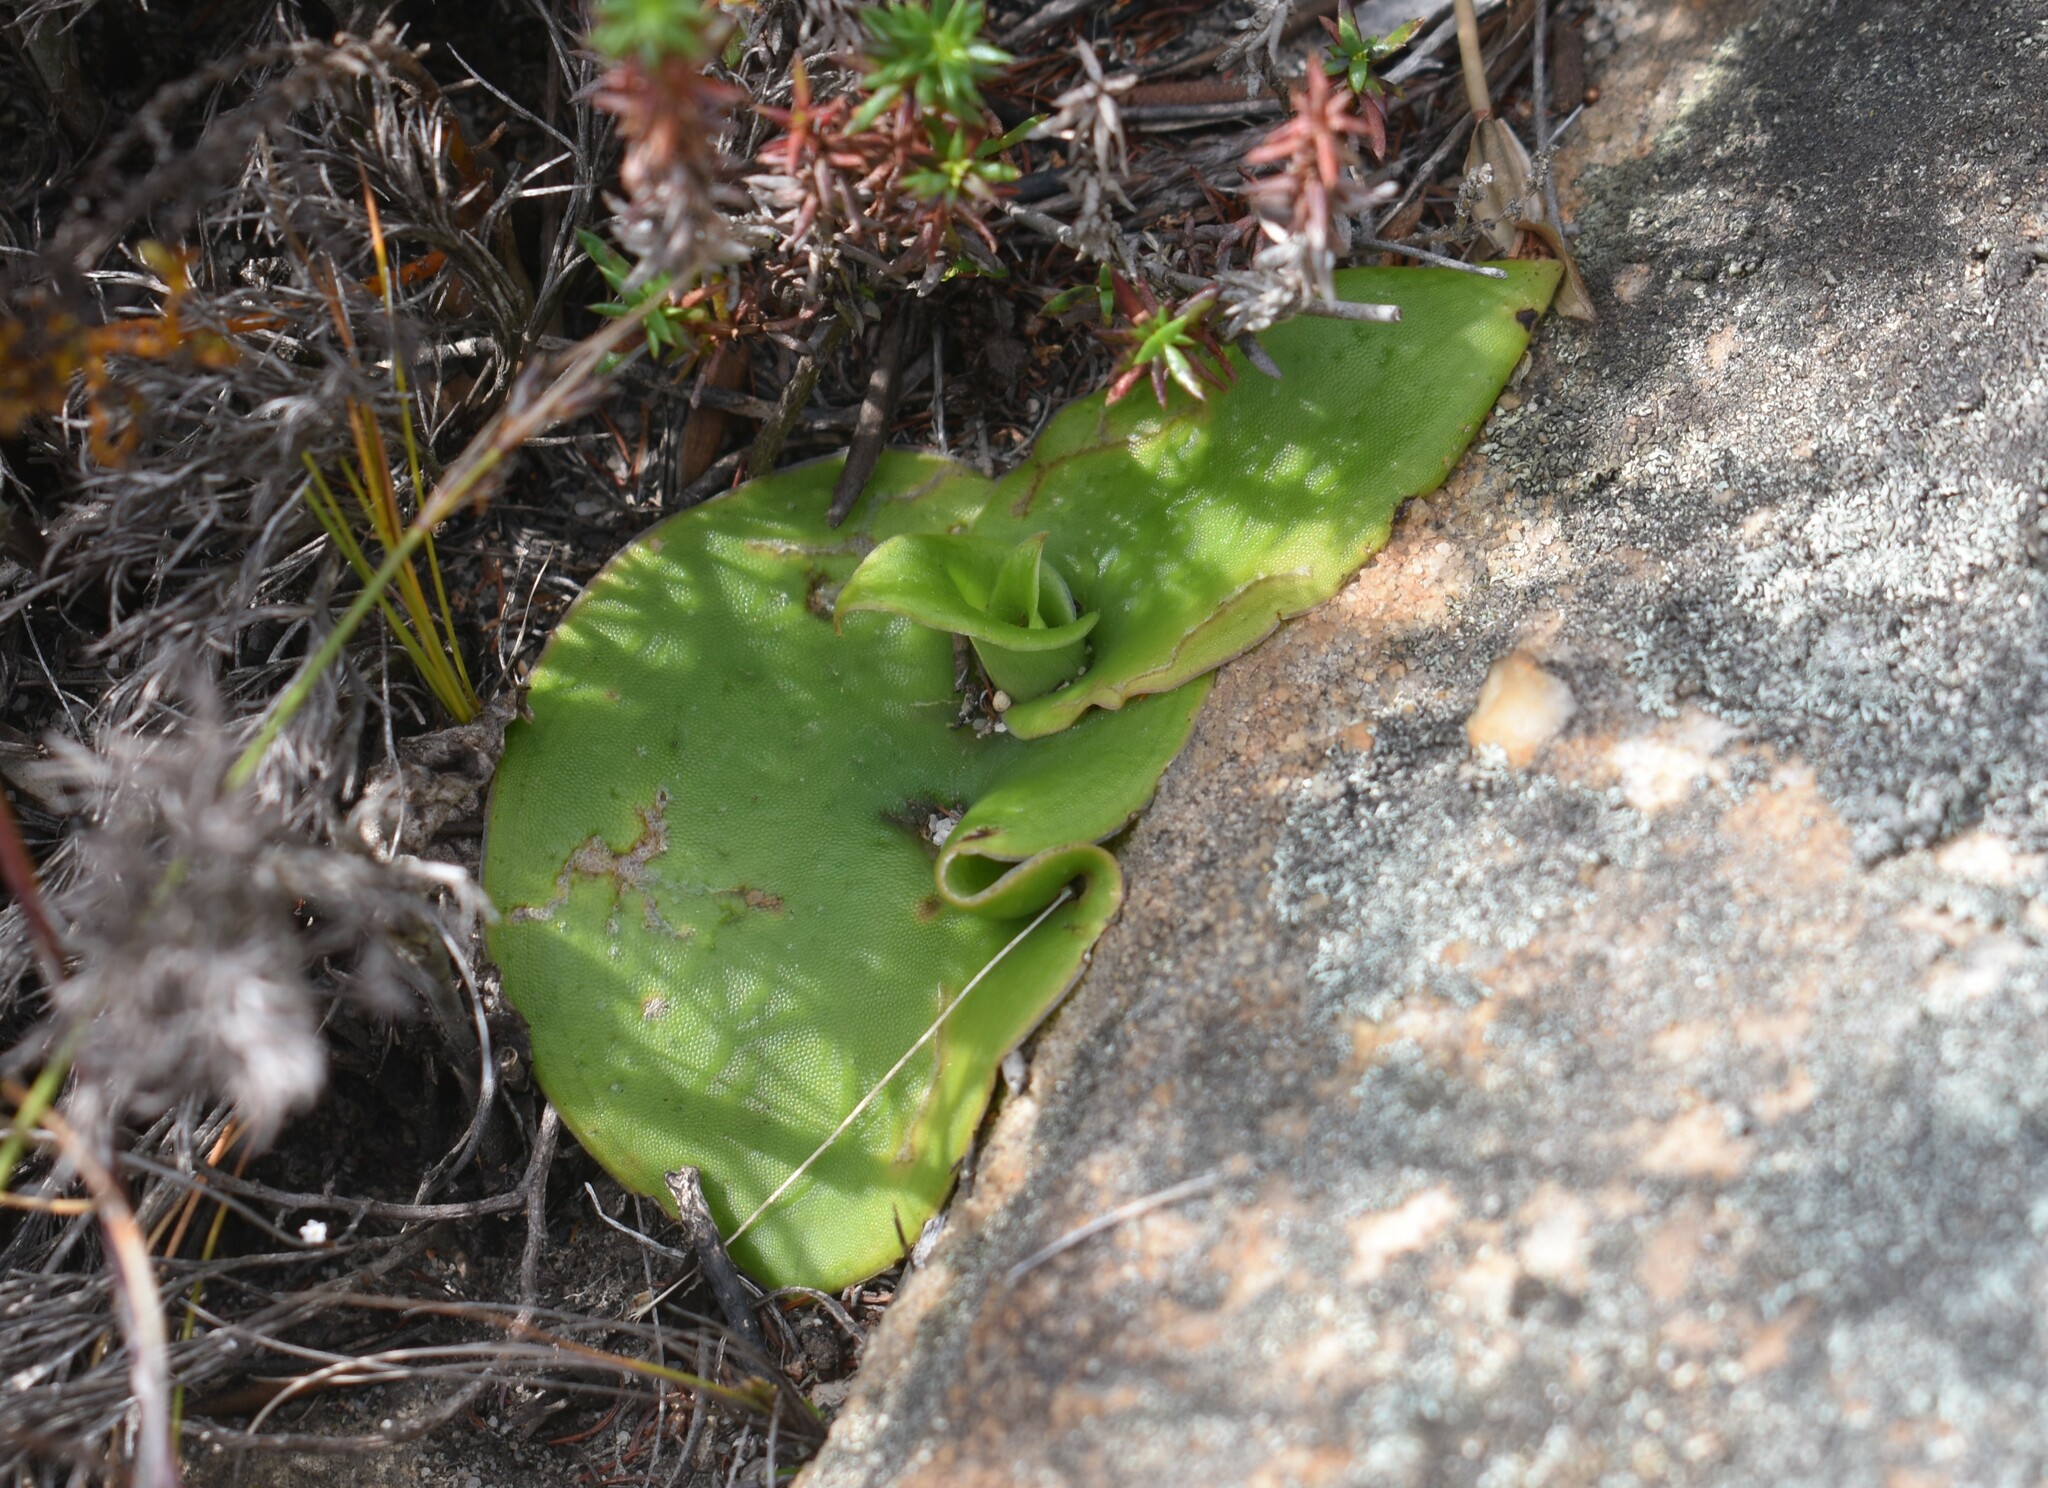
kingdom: Plantae
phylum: Tracheophyta
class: Liliopsida
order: Asparagales
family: Orchidaceae
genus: Satyrium
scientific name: Satyrium erectum
